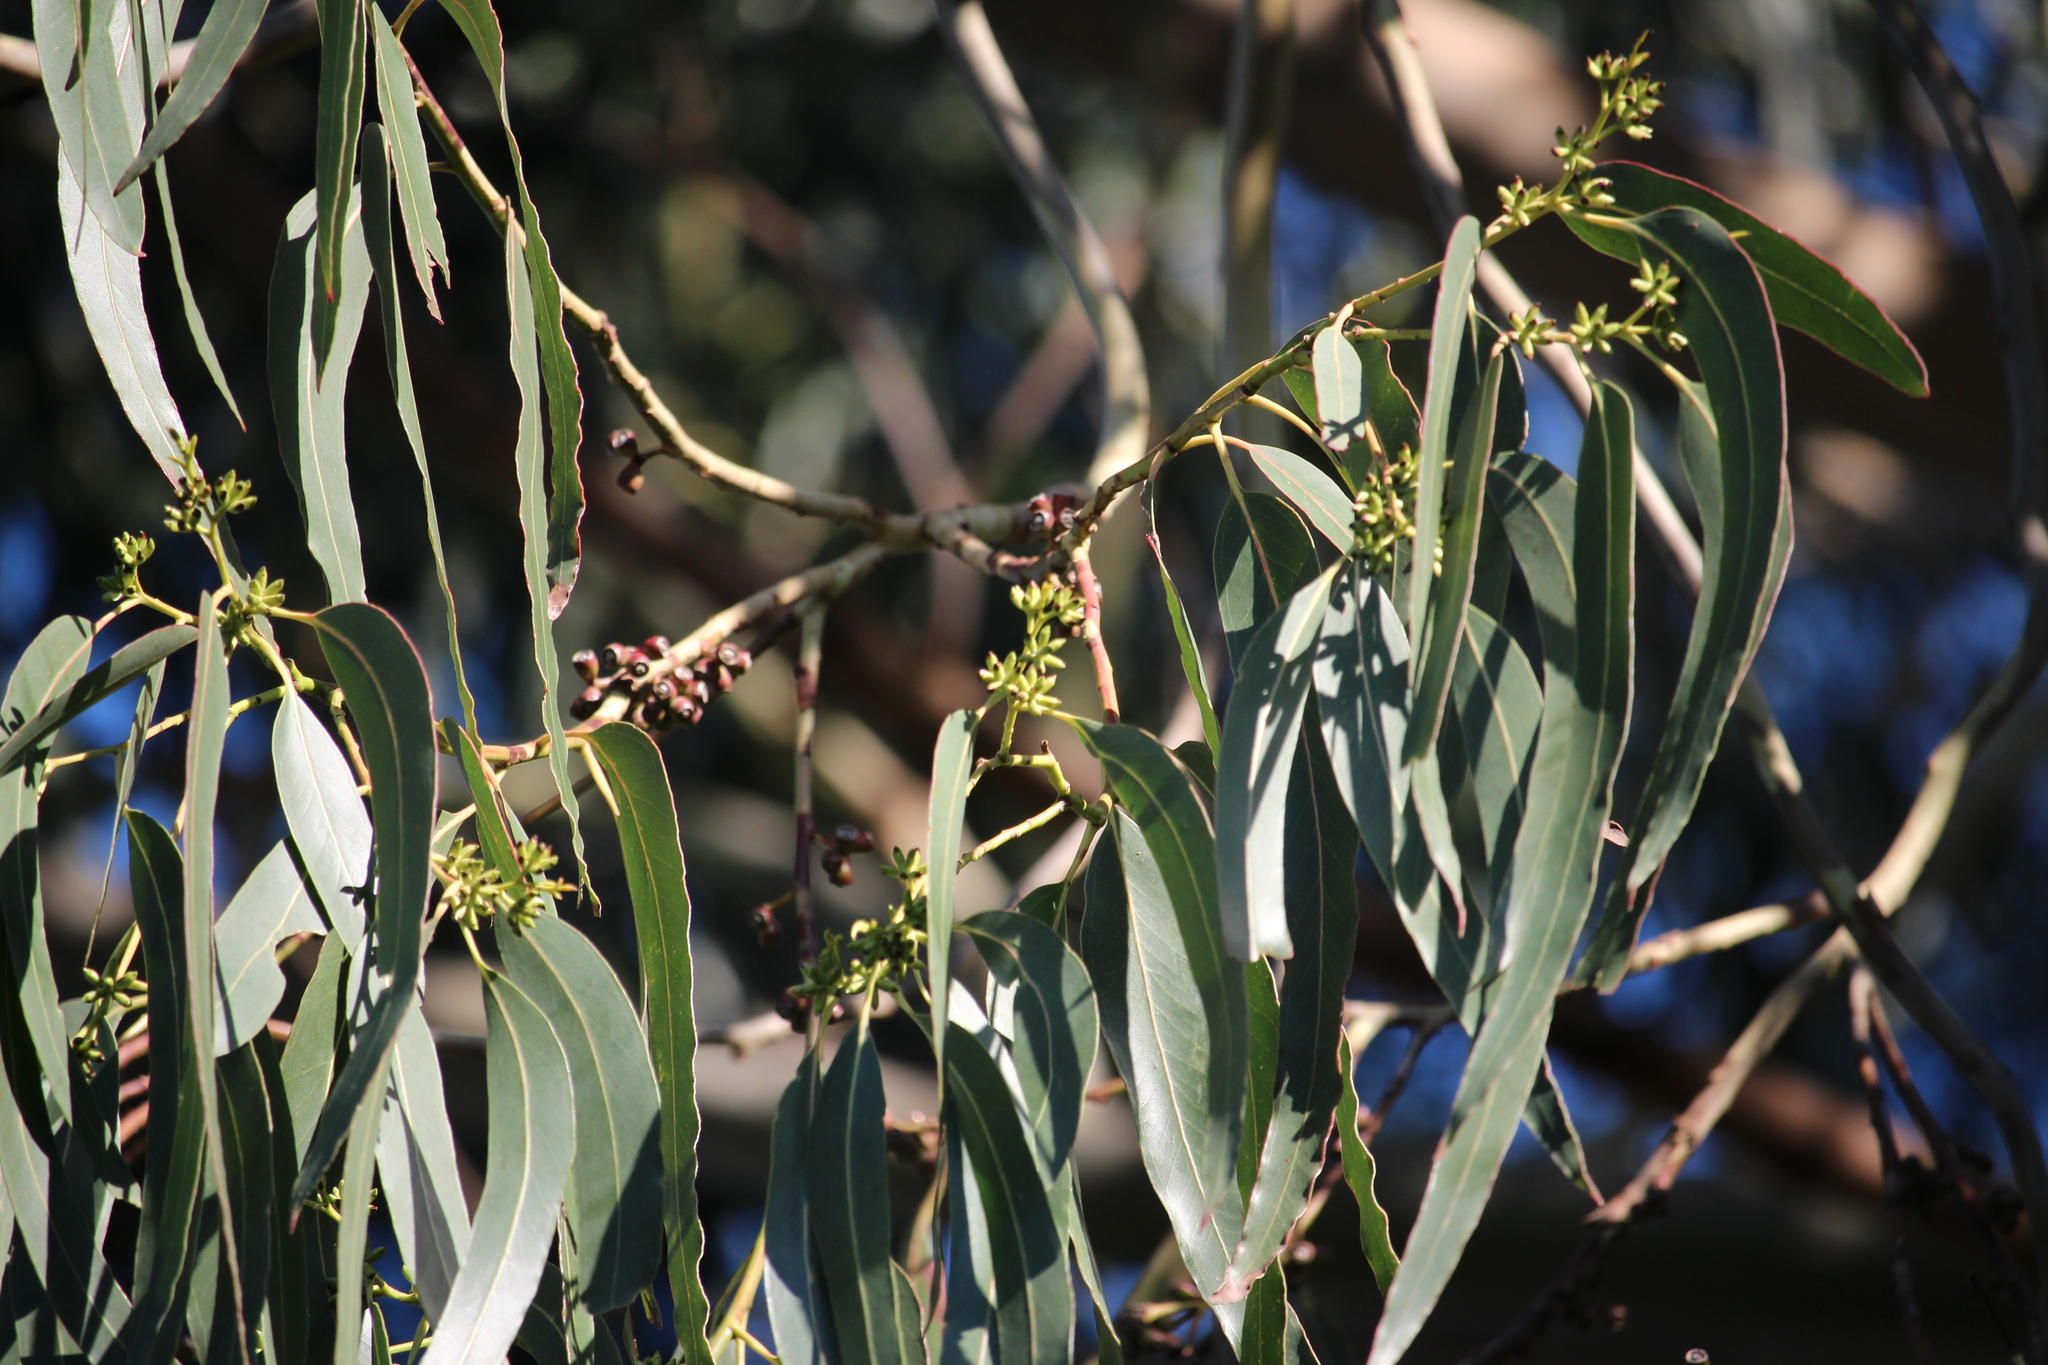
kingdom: Plantae
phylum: Tracheophyta
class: Magnoliopsida
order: Myrtales
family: Myrtaceae
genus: Eucalyptus
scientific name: Eucalyptus nitens
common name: Shining-gum
